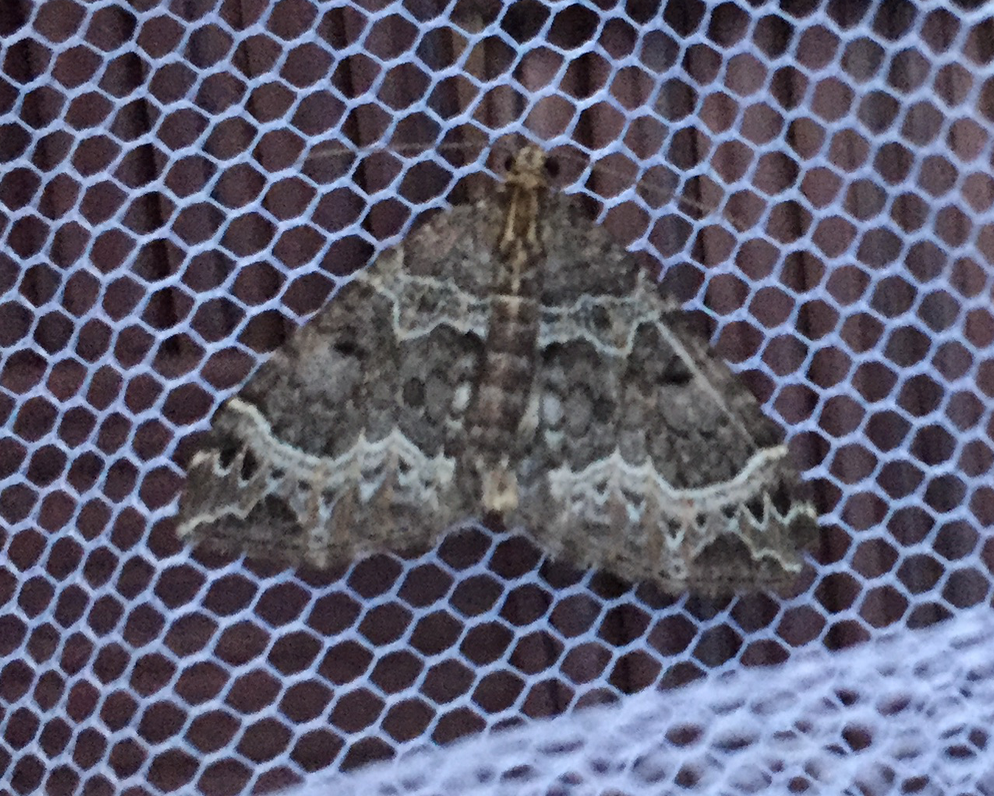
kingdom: Animalia
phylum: Arthropoda
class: Insecta
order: Lepidoptera
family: Geometridae
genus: Ecliptopera
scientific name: Ecliptopera silaceata
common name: Small phoenix
